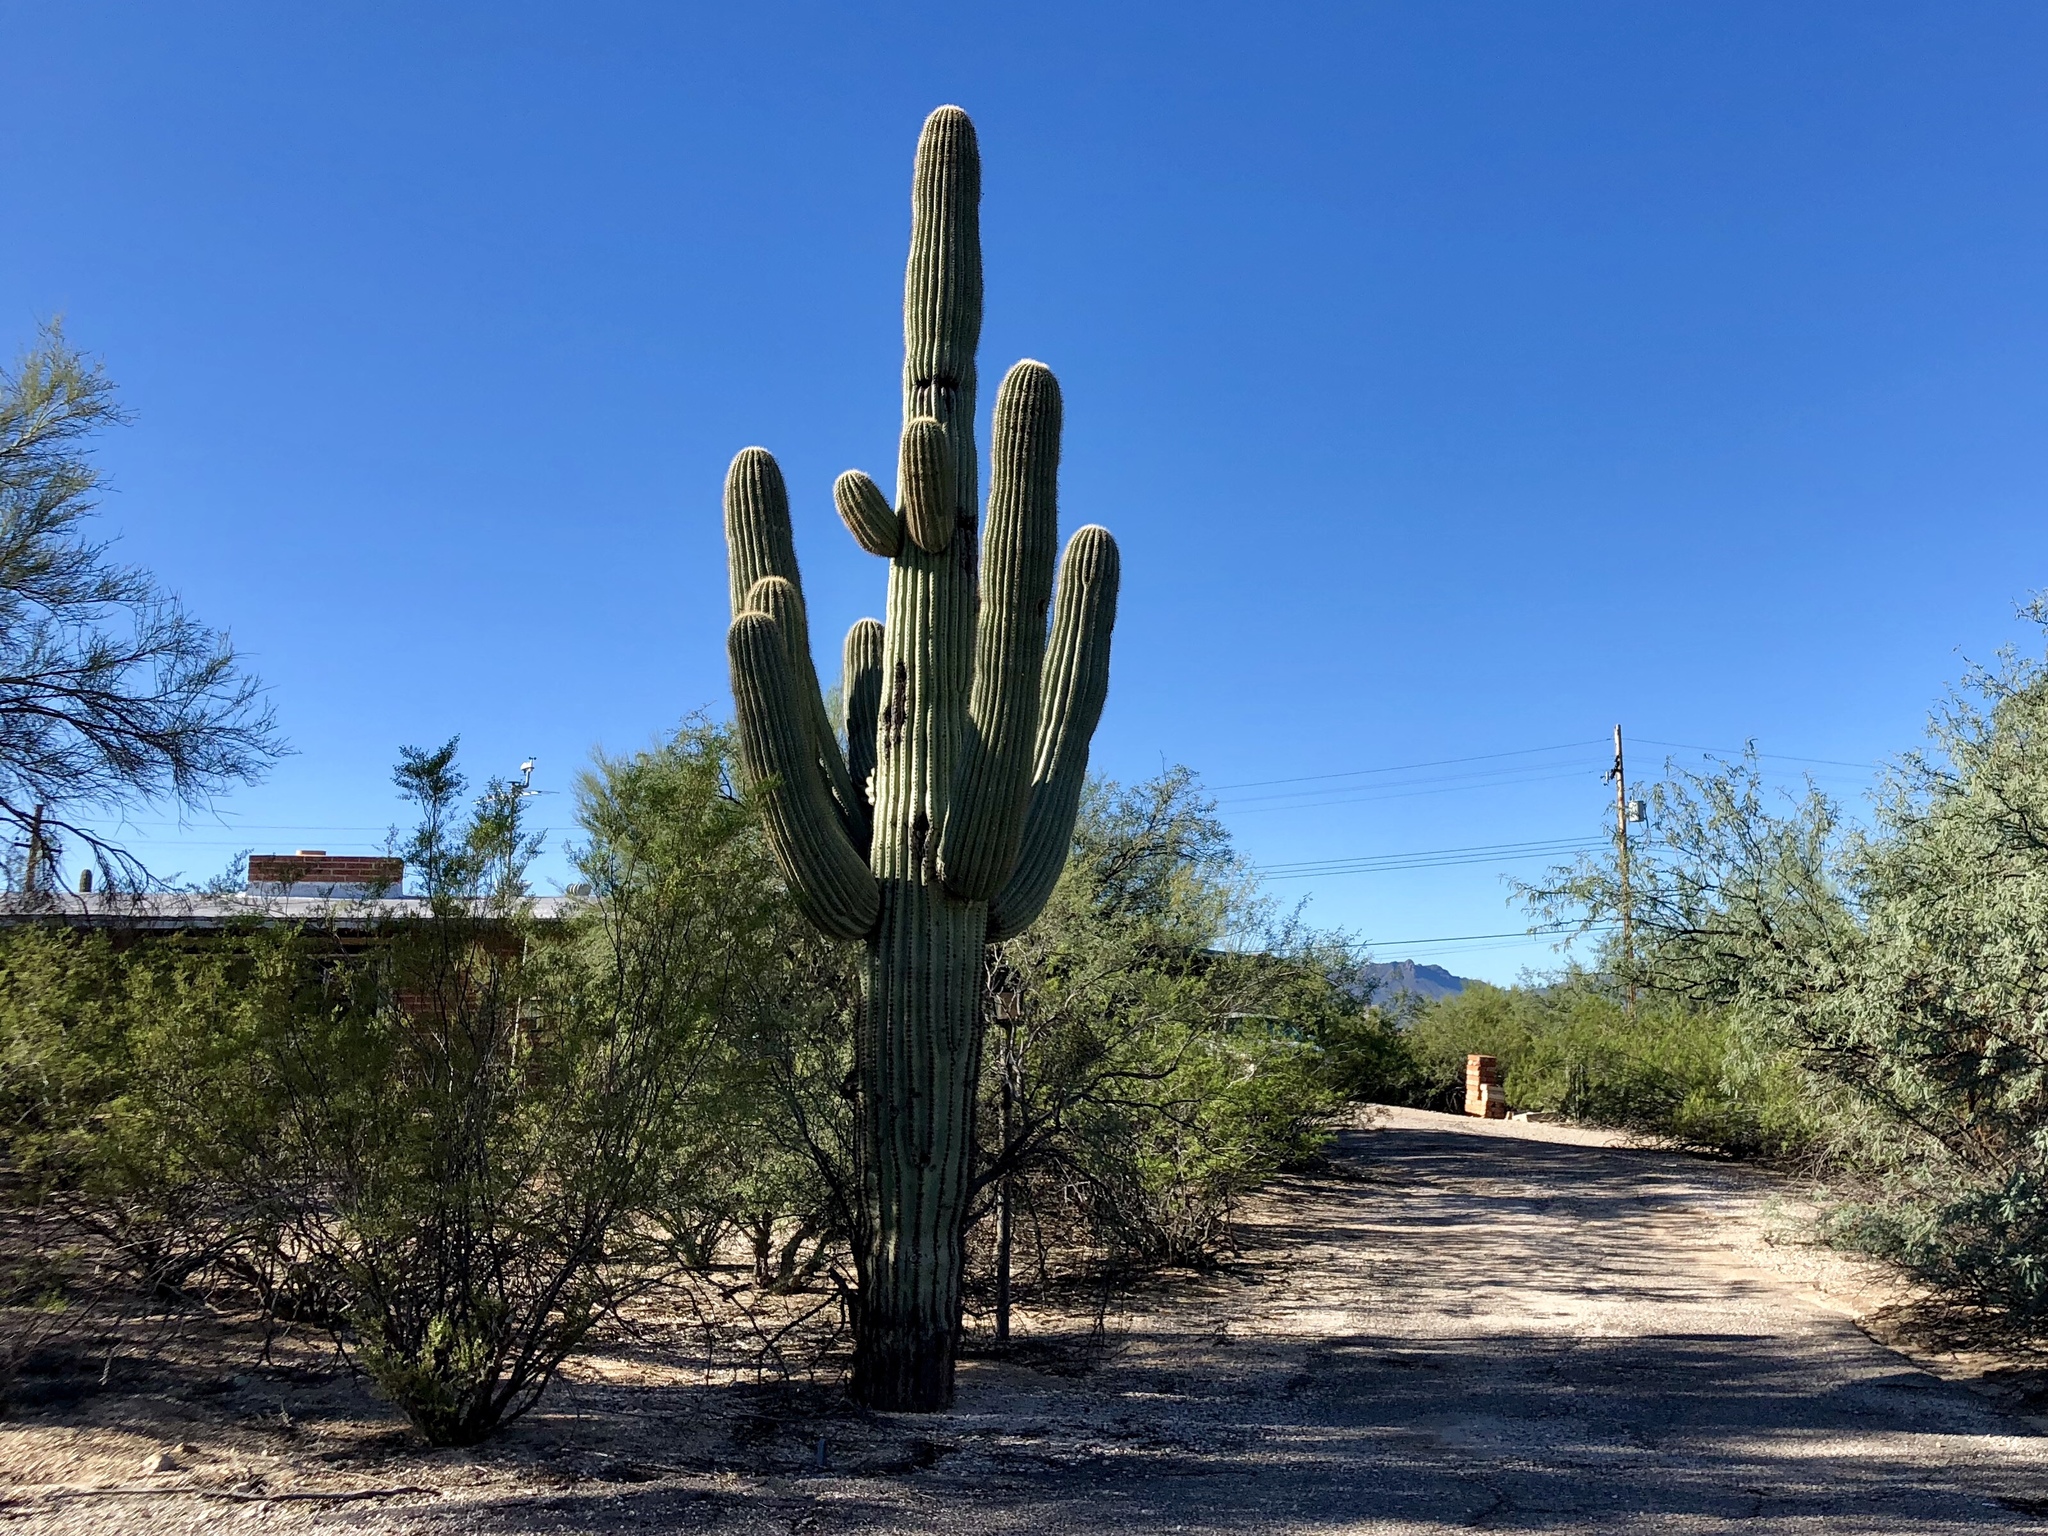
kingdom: Plantae
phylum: Tracheophyta
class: Magnoliopsida
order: Caryophyllales
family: Cactaceae
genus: Carnegiea
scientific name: Carnegiea gigantea
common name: Saguaro
